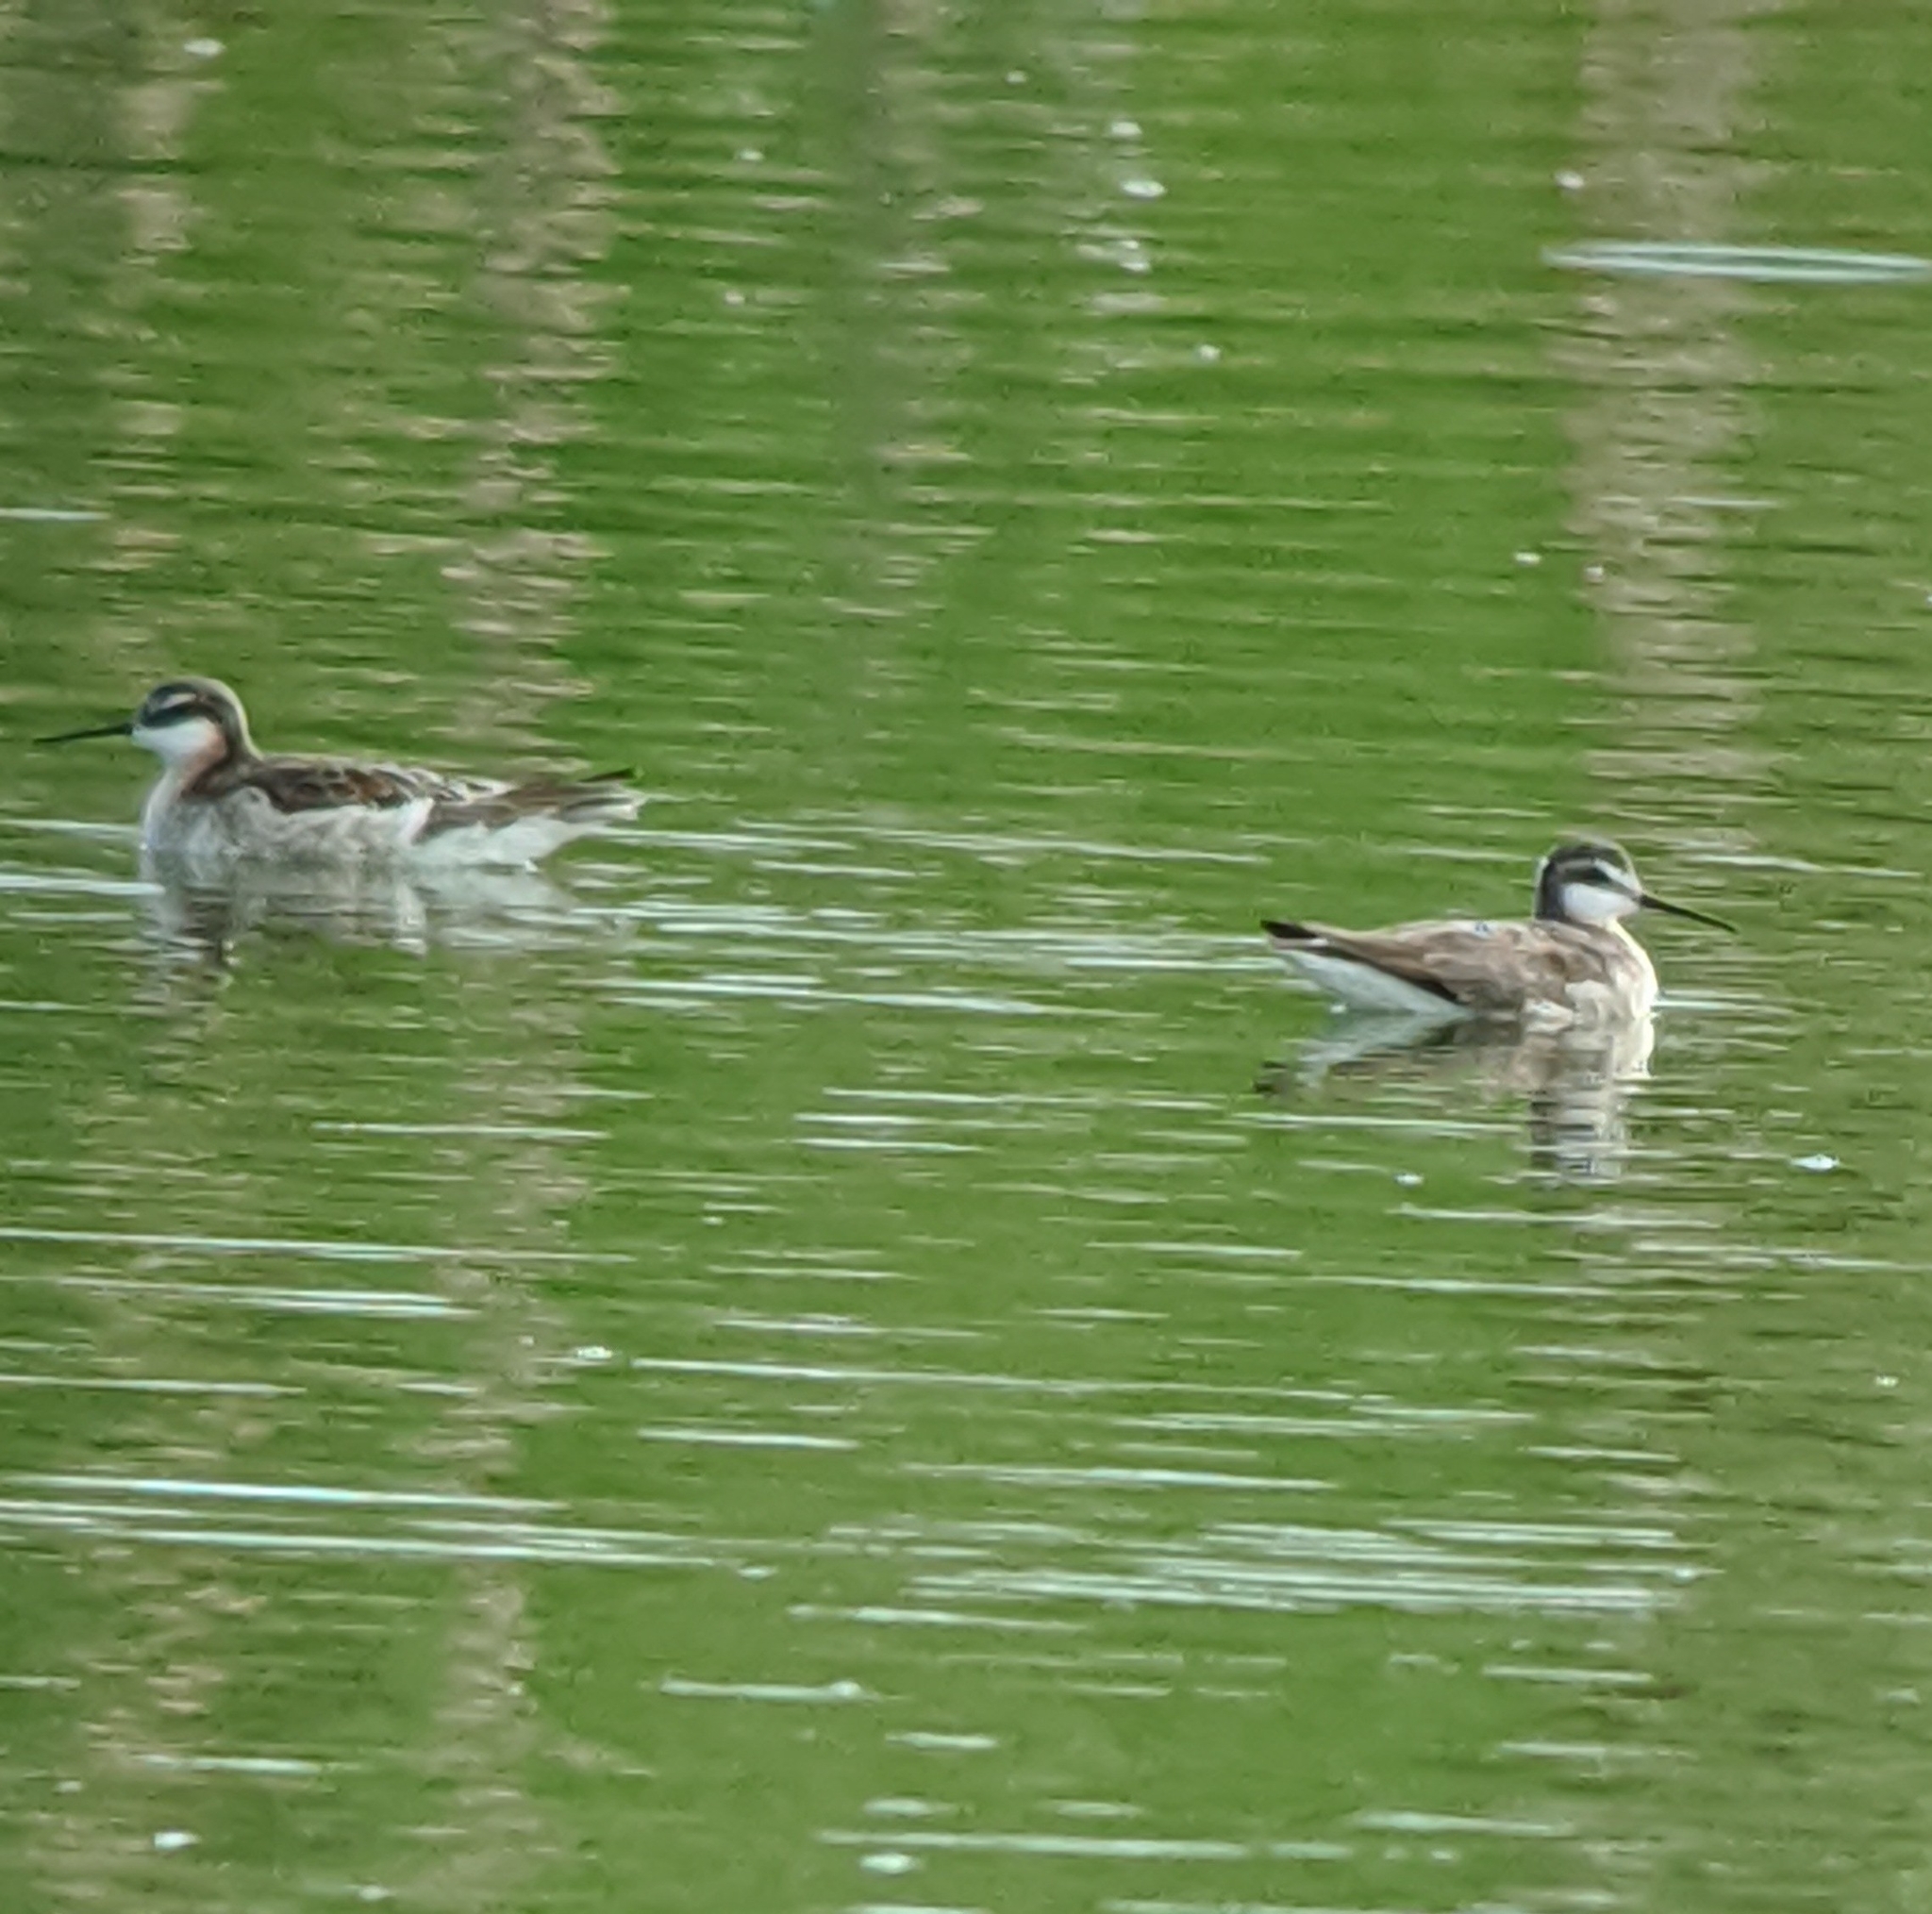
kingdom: Animalia
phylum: Chordata
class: Aves
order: Charadriiformes
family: Scolopacidae
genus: Phalaropus
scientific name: Phalaropus tricolor
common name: Wilson's phalarope
